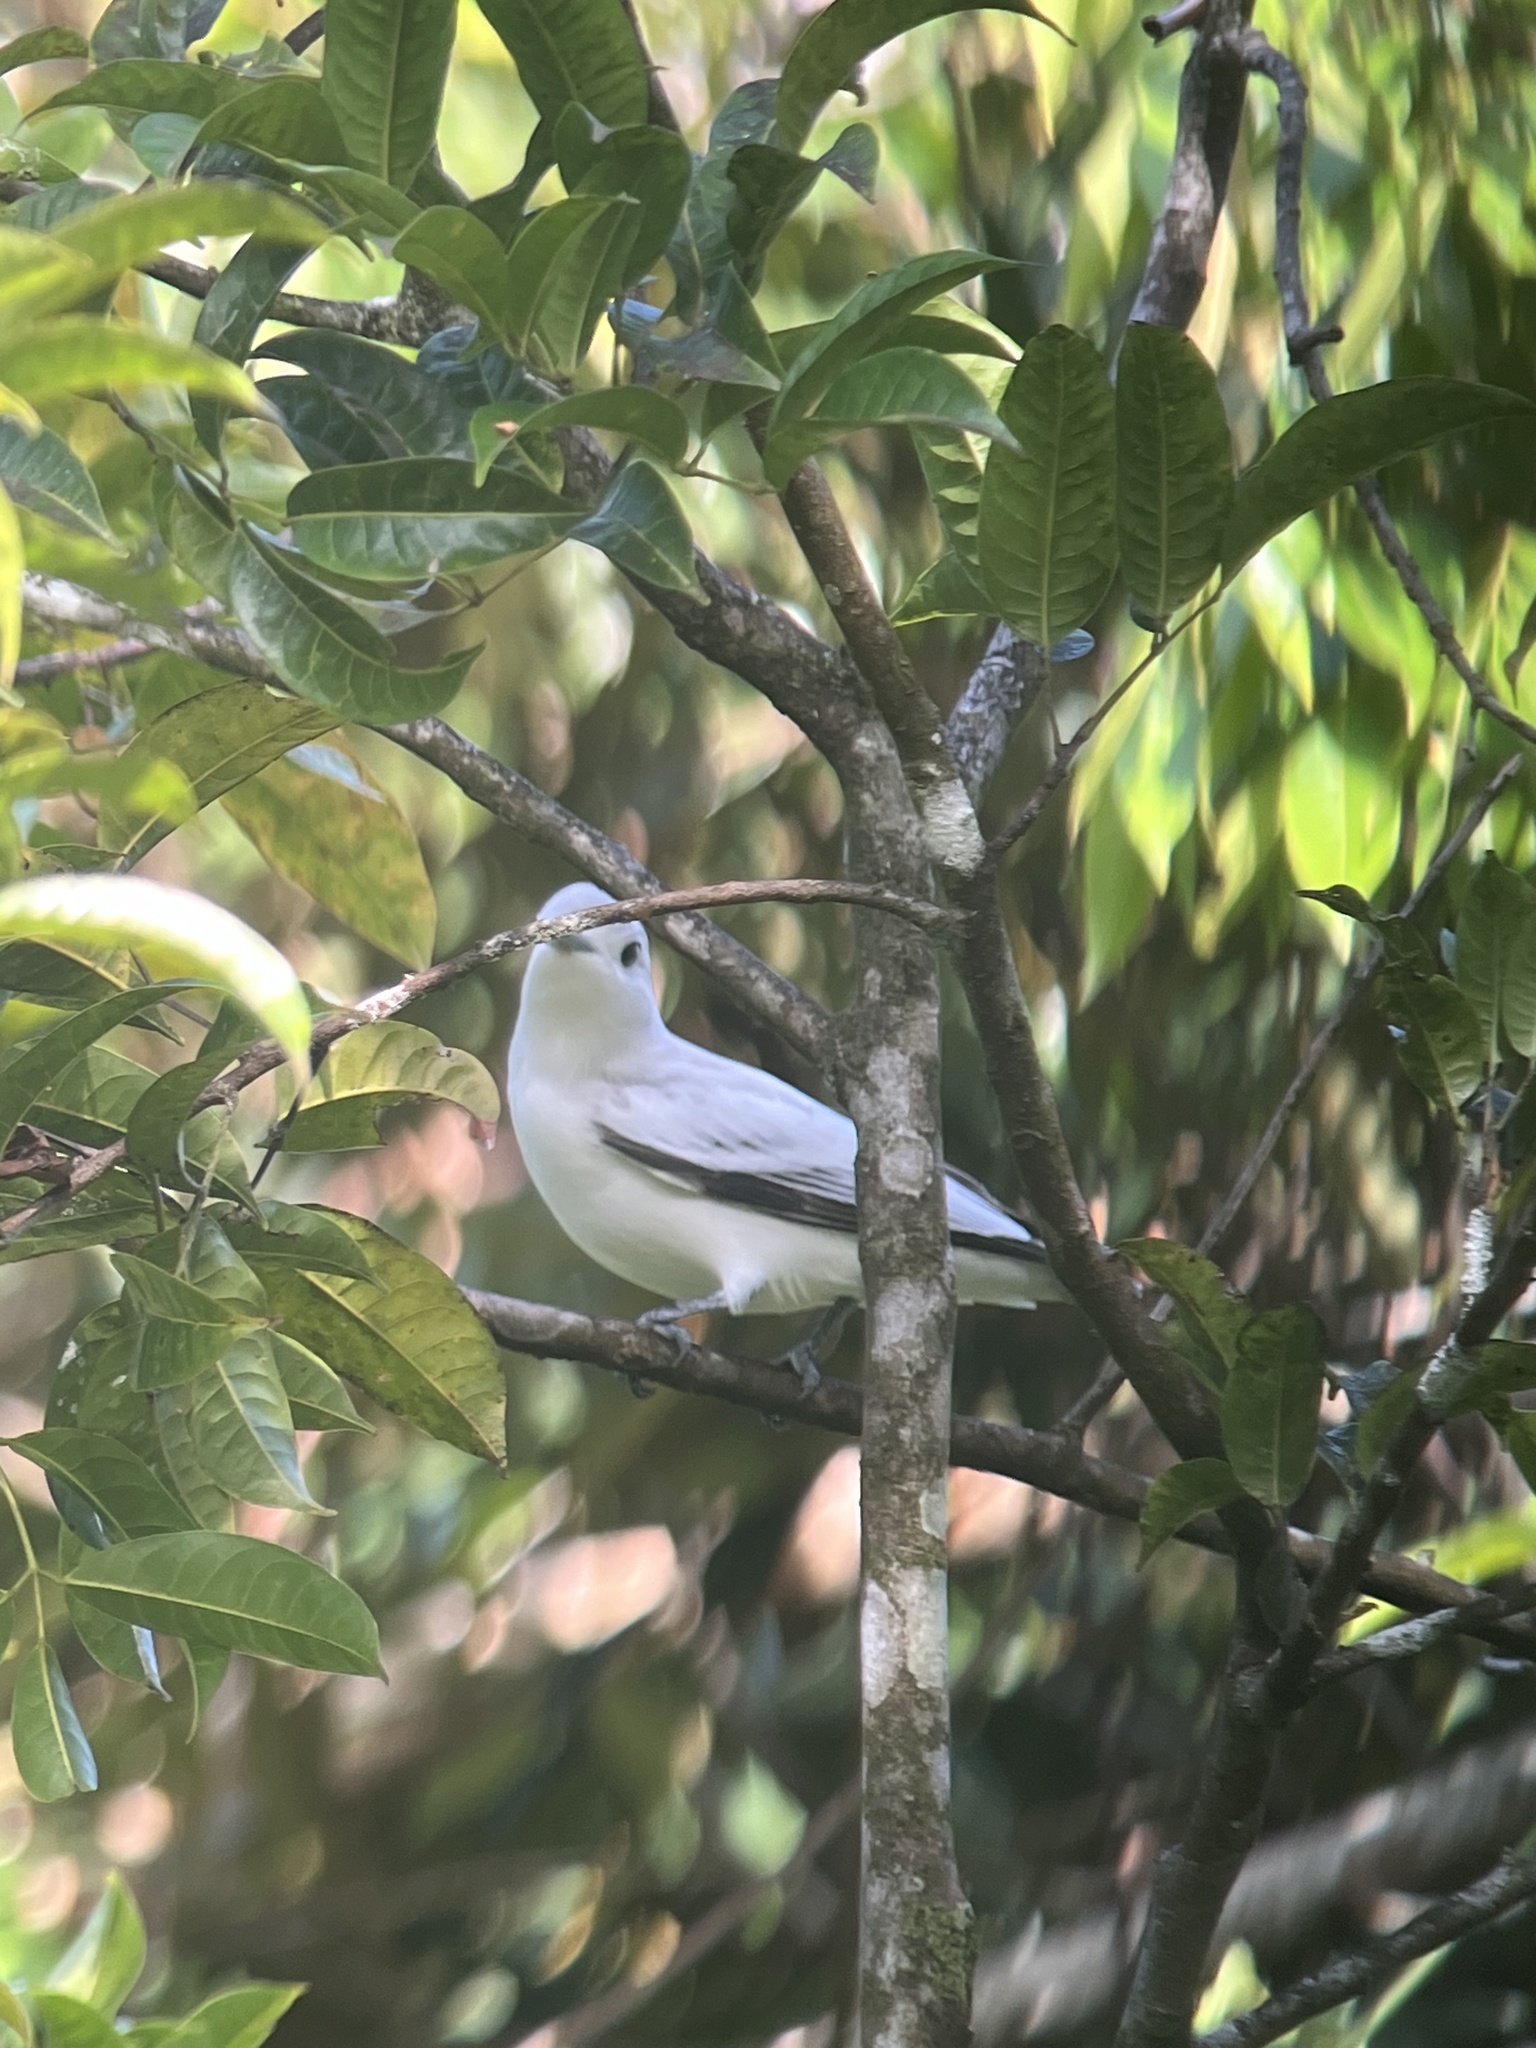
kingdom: Animalia
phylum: Chordata
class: Aves
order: Passeriformes
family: Cotingidae
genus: Carpodectes
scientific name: Carpodectes nitidus
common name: Snowy cotinga
